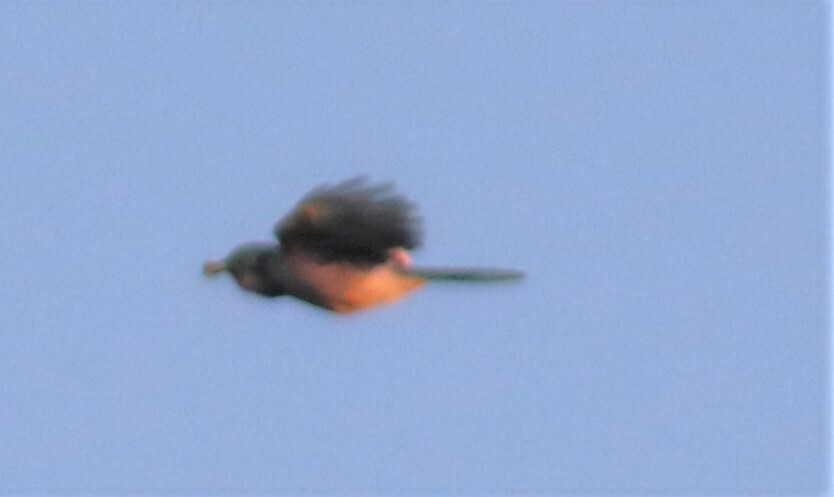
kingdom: Animalia
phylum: Chordata
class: Aves
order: Passeriformes
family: Corvidae
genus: Cyanocitta
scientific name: Cyanocitta cristata
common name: Blue jay
